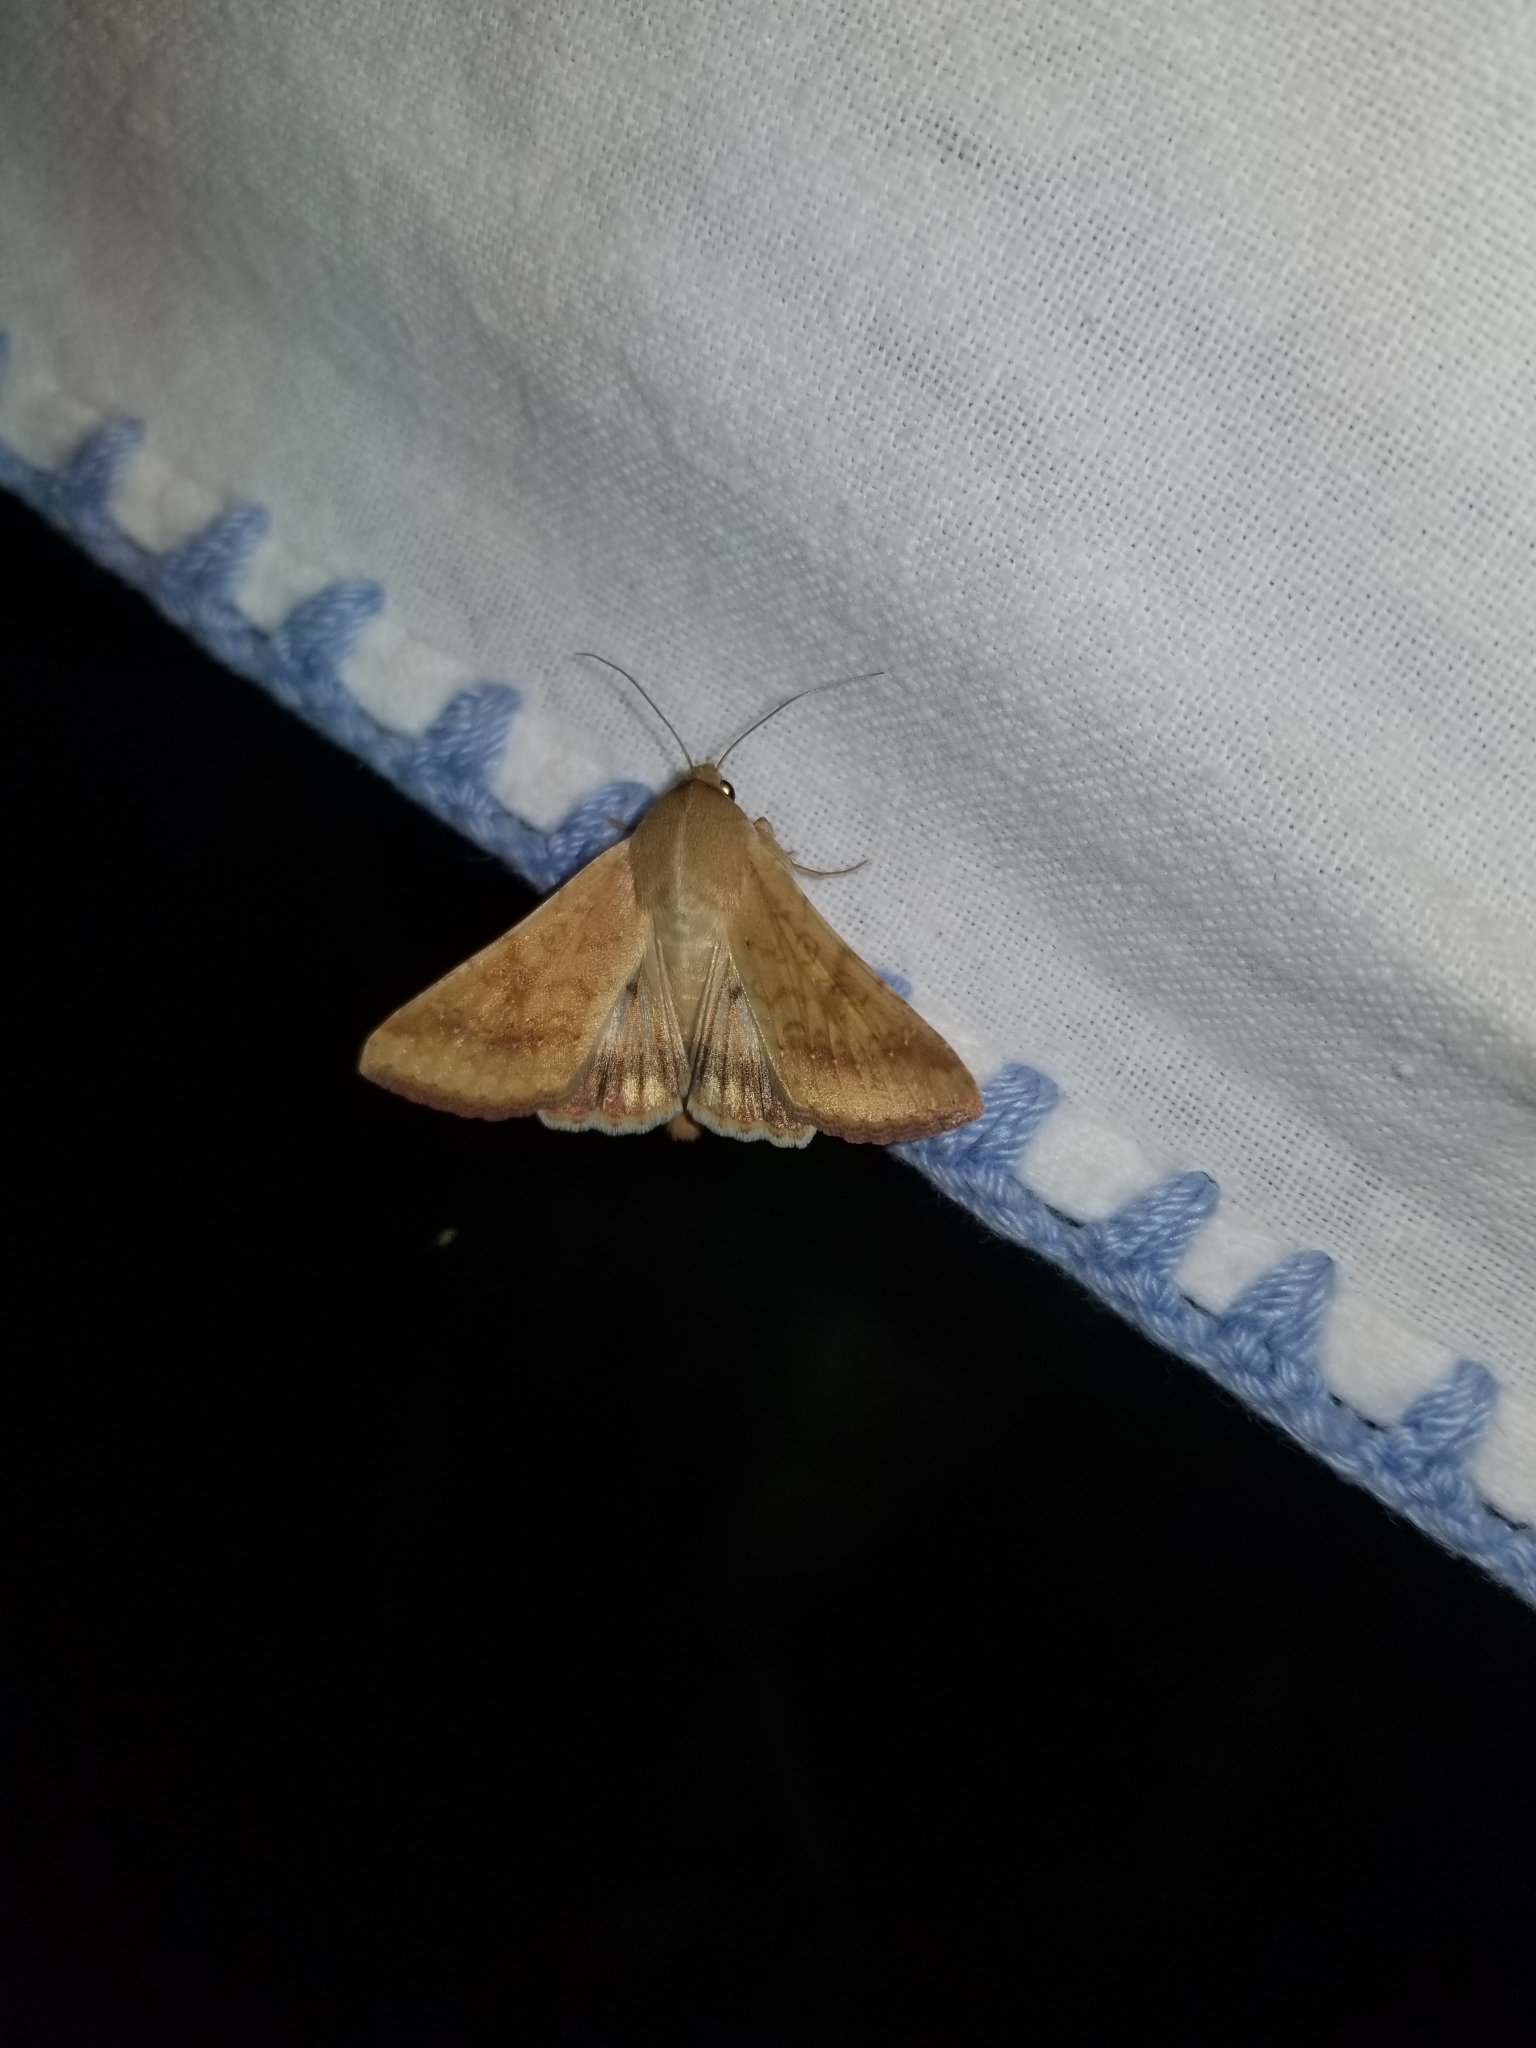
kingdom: Animalia
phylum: Arthropoda
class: Insecta
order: Lepidoptera
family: Noctuidae
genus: Helicoverpa
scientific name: Helicoverpa zea
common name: Bollworm
